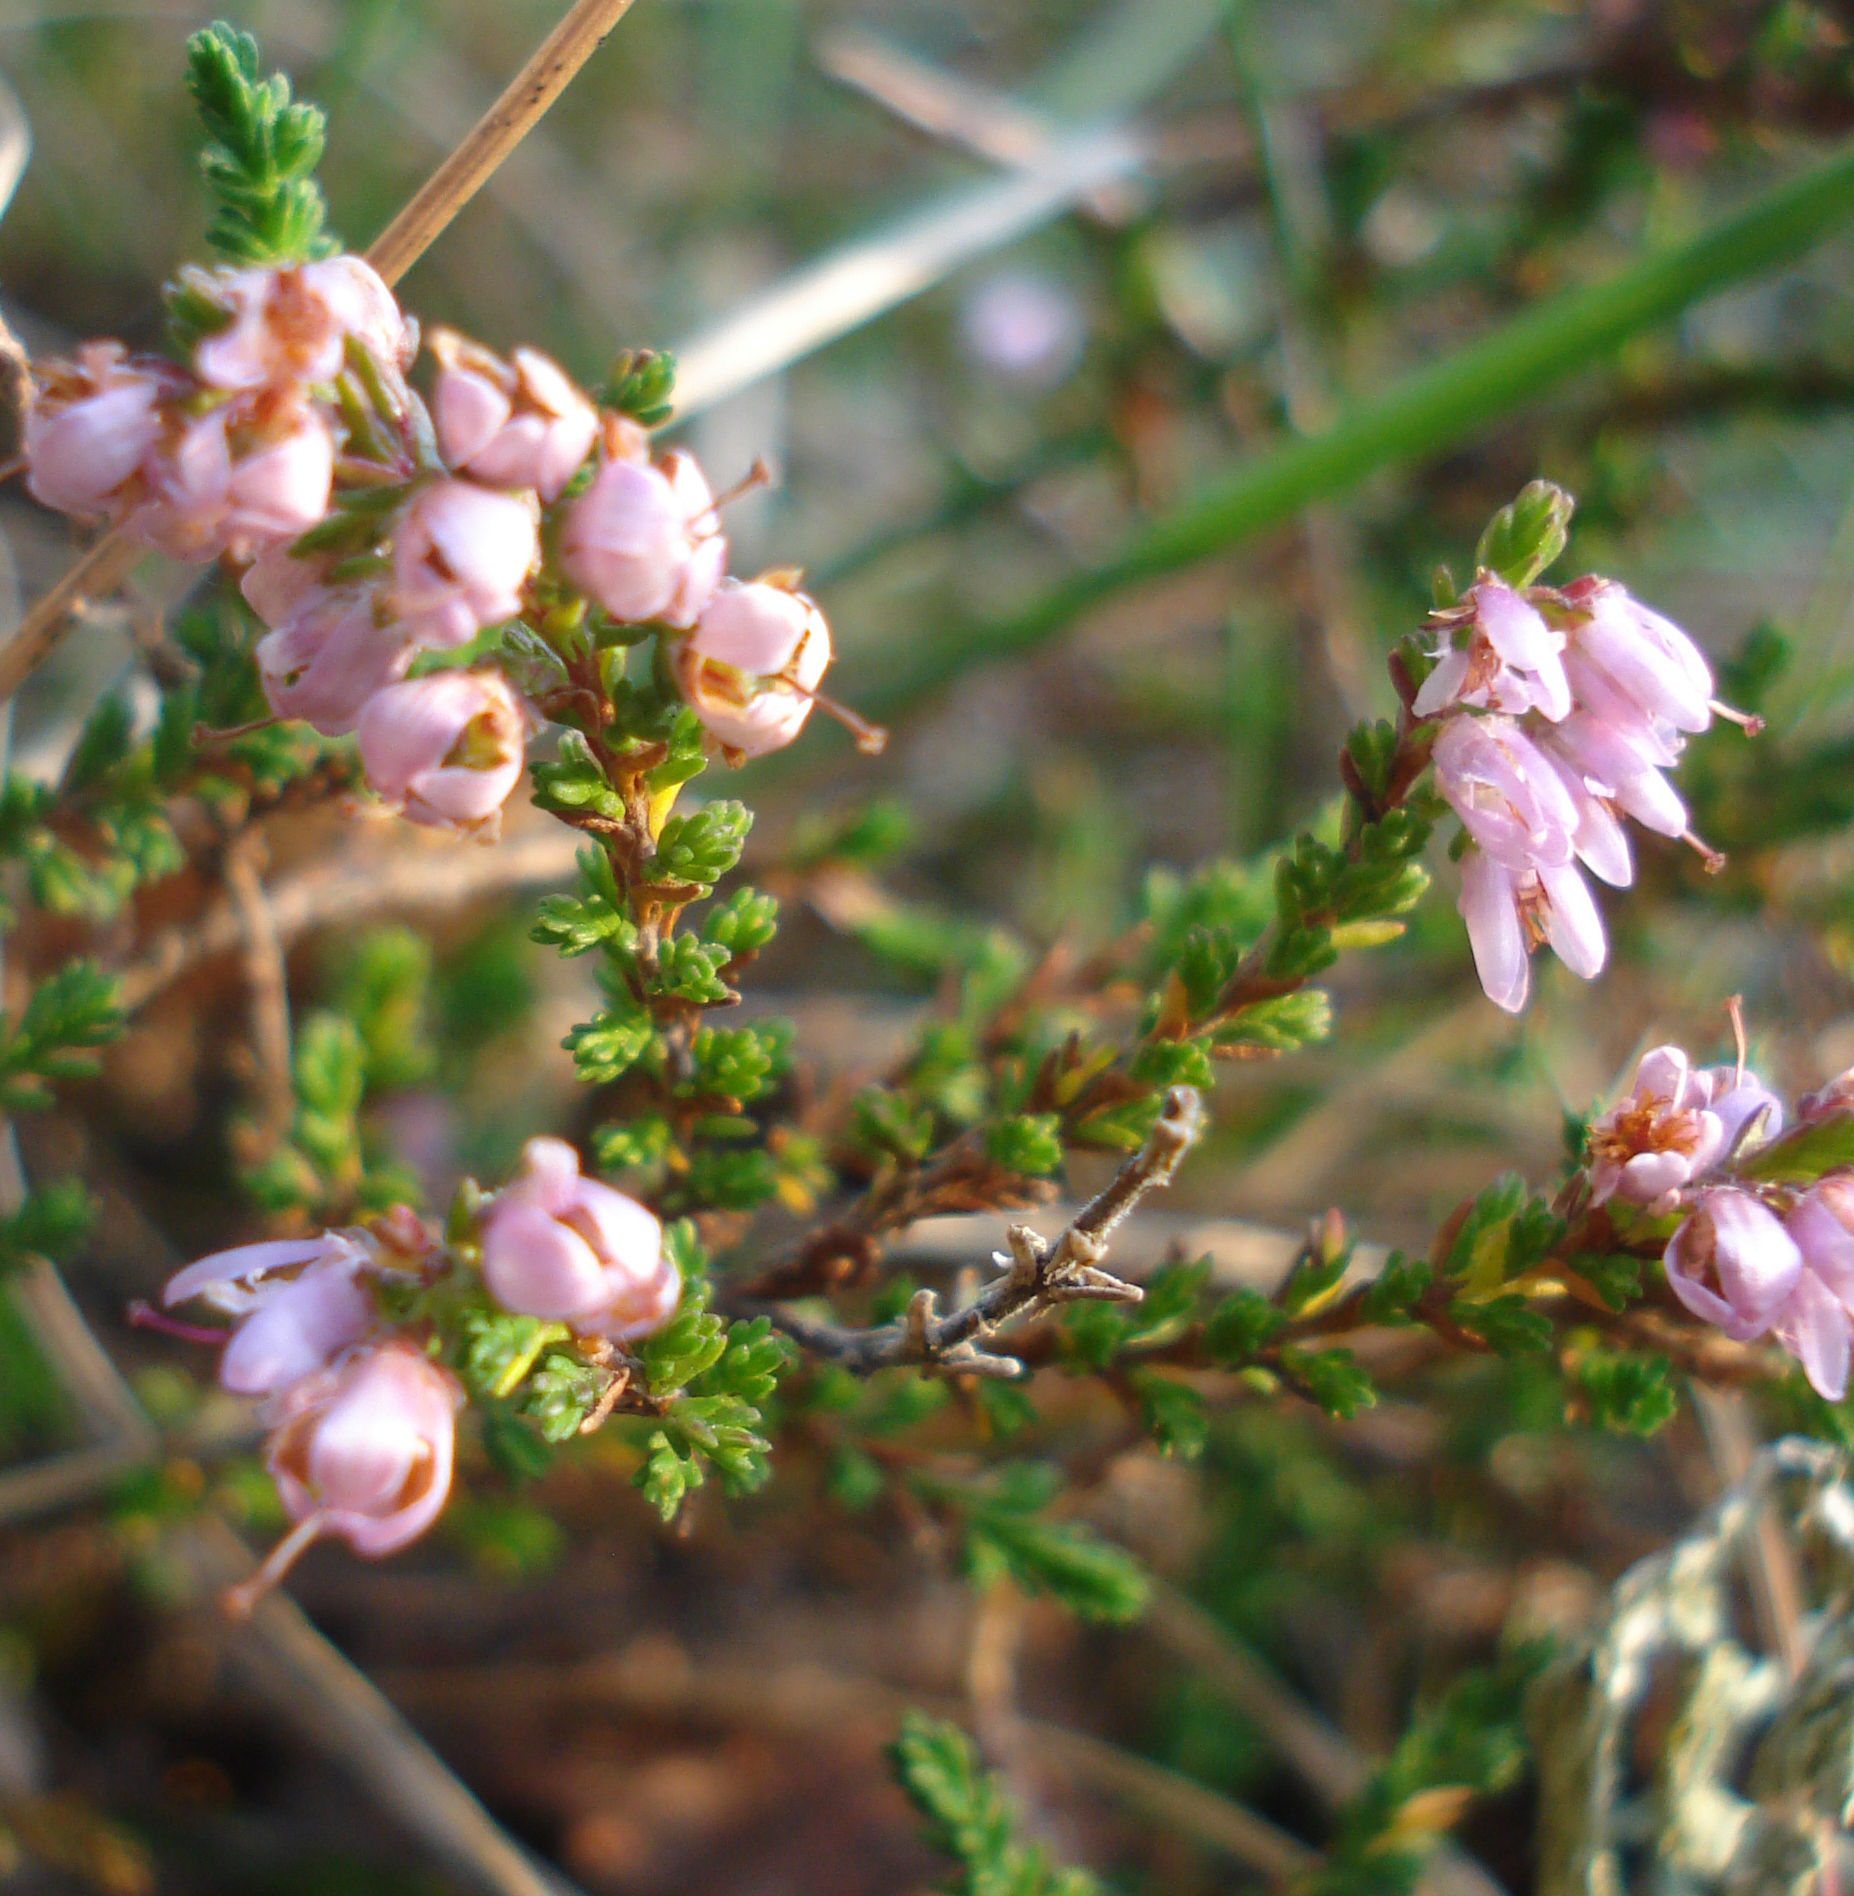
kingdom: Plantae
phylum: Tracheophyta
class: Magnoliopsida
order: Ericales
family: Ericaceae
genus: Calluna
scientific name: Calluna vulgaris
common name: Heather
